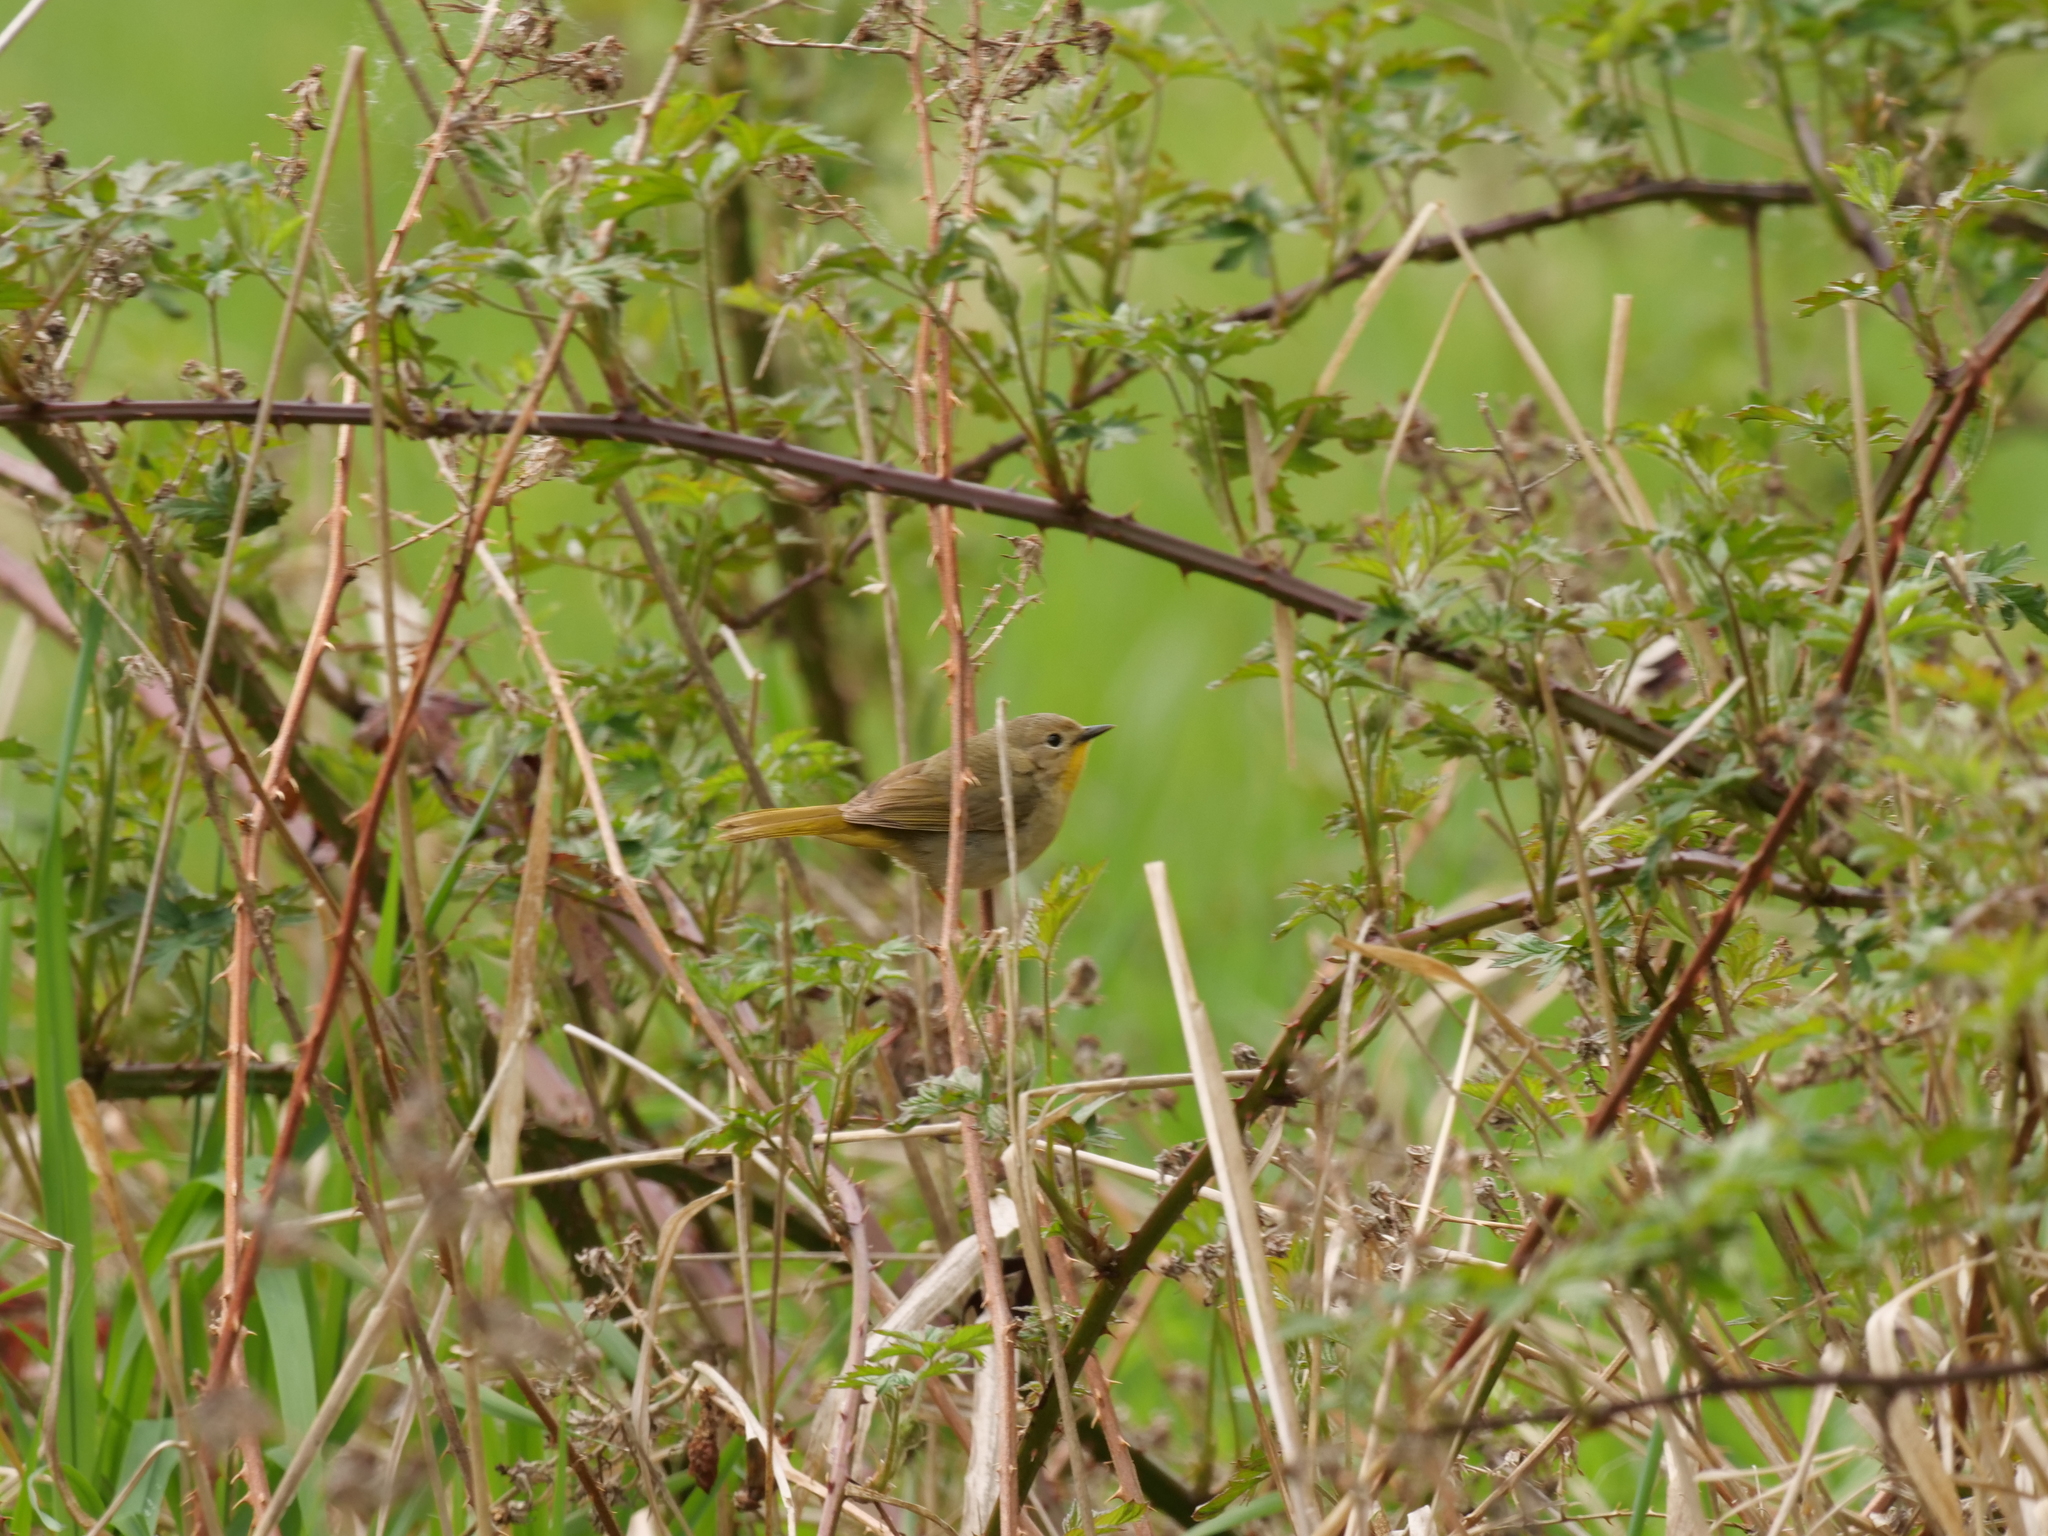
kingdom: Animalia
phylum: Chordata
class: Aves
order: Passeriformes
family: Parulidae
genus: Geothlypis
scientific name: Geothlypis trichas
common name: Common yellowthroat
